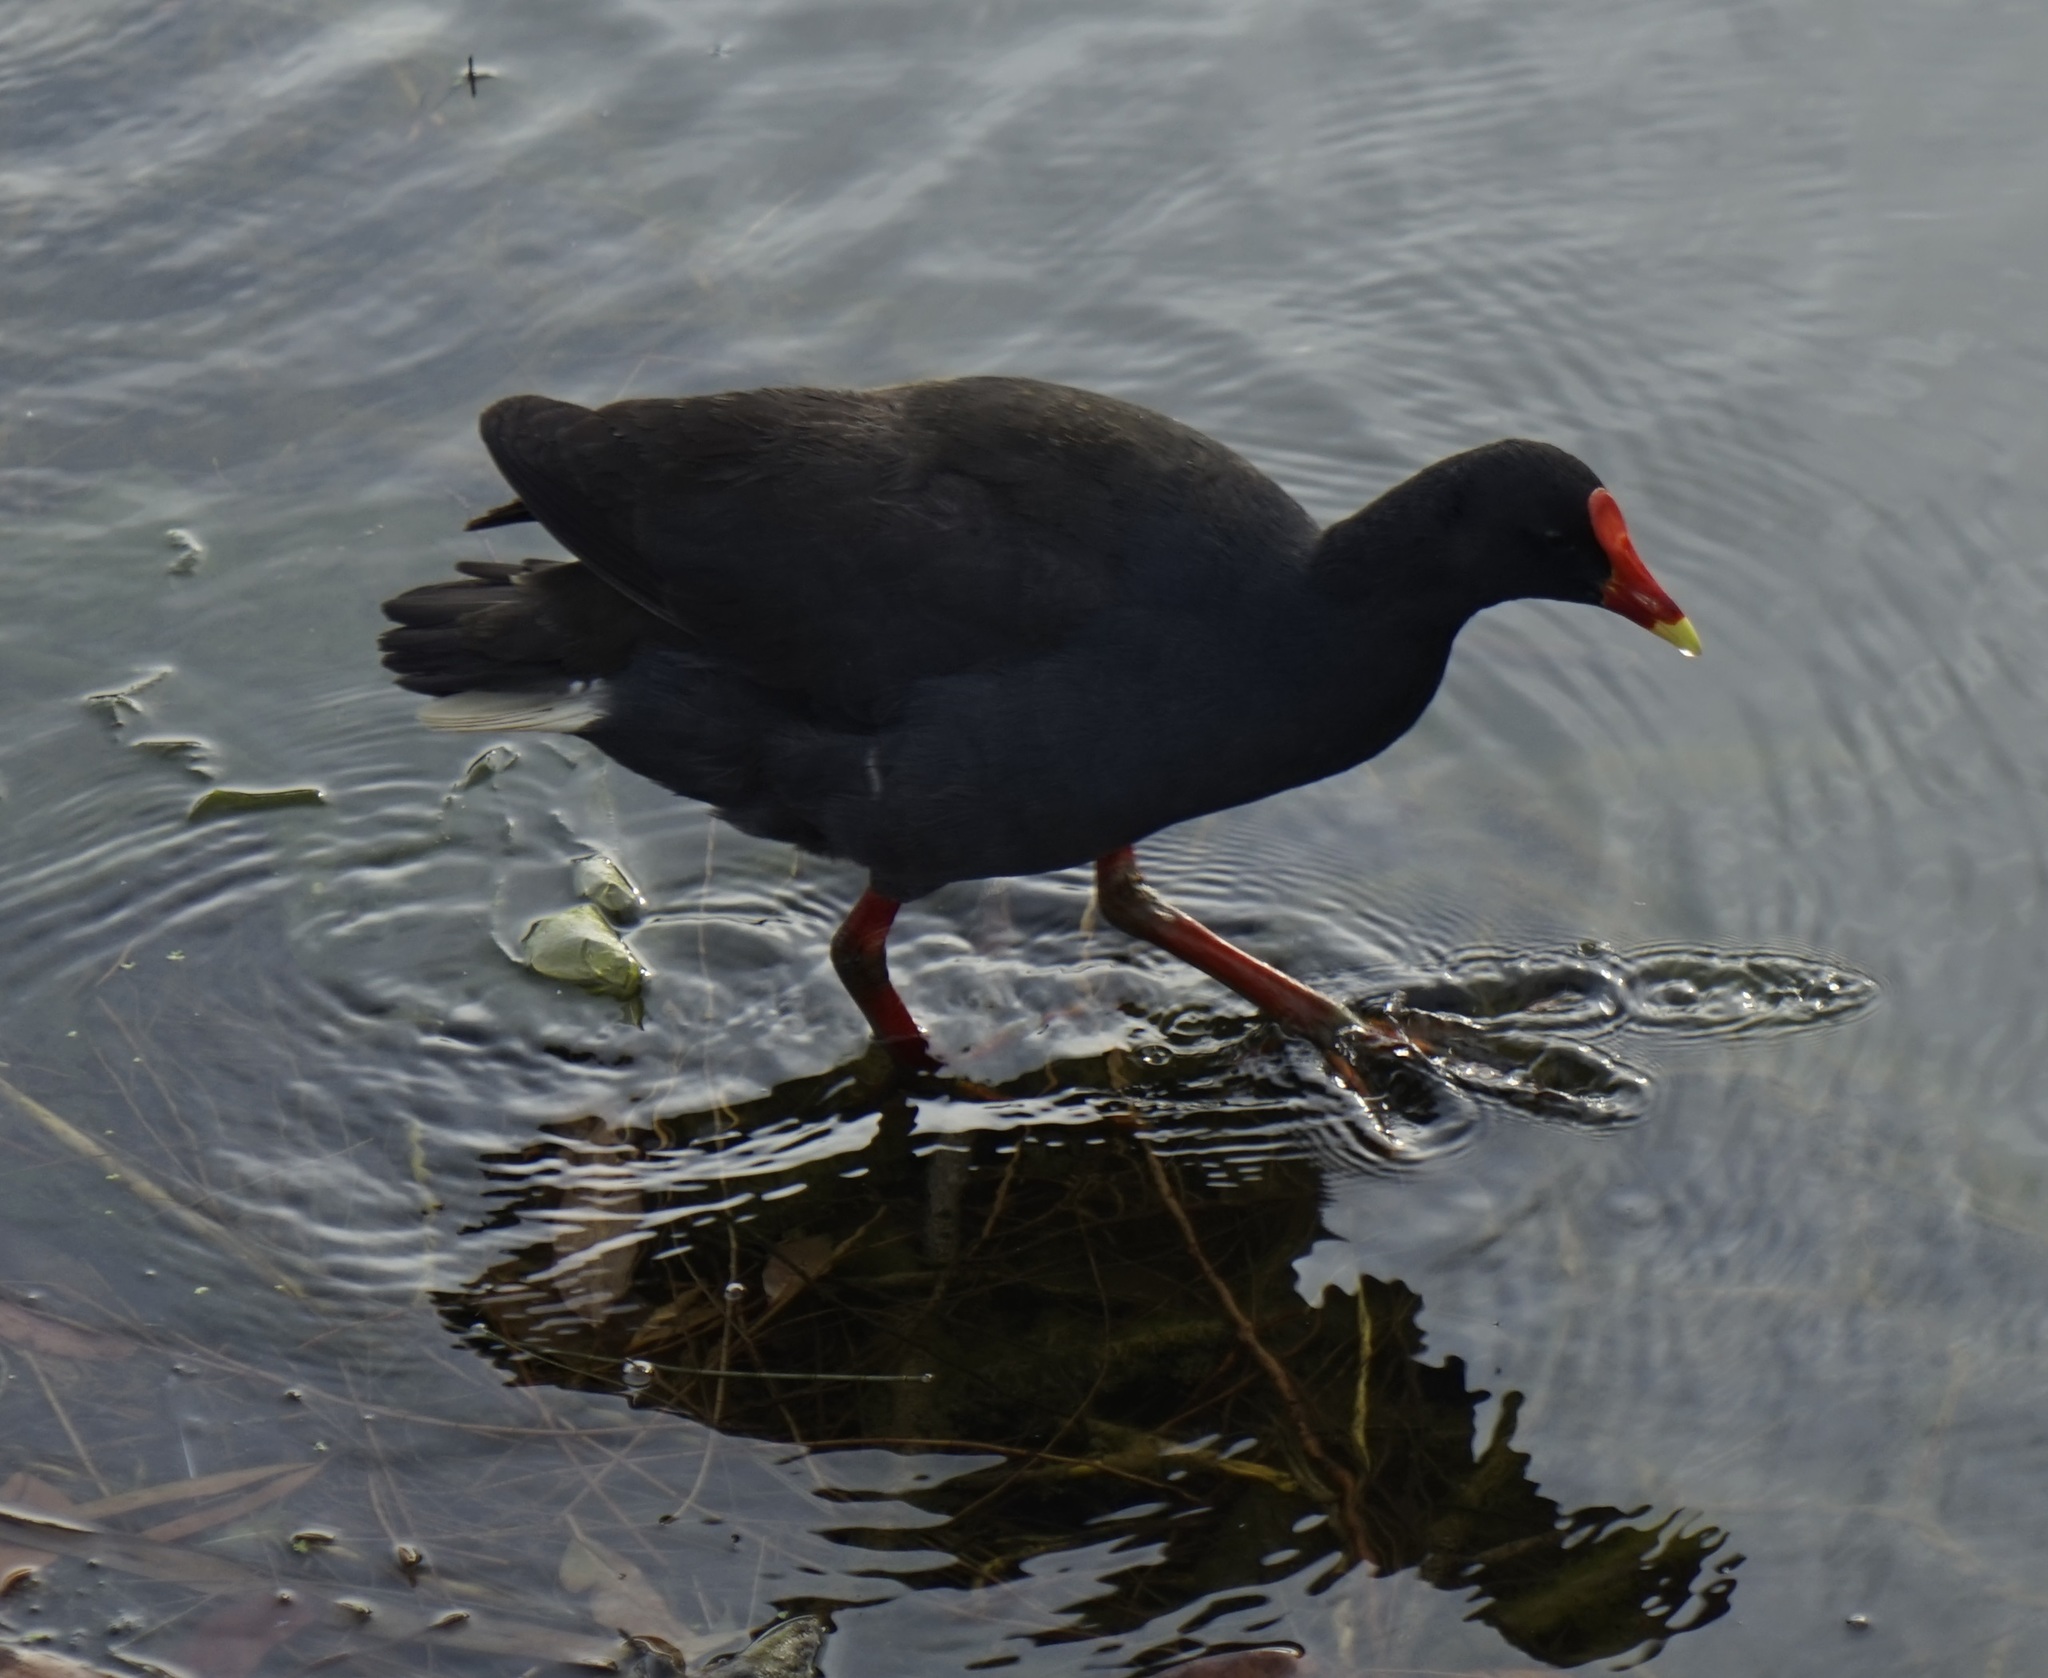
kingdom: Animalia
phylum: Chordata
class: Aves
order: Gruiformes
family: Rallidae
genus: Gallinula
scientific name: Gallinula tenebrosa
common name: Dusky moorhen
